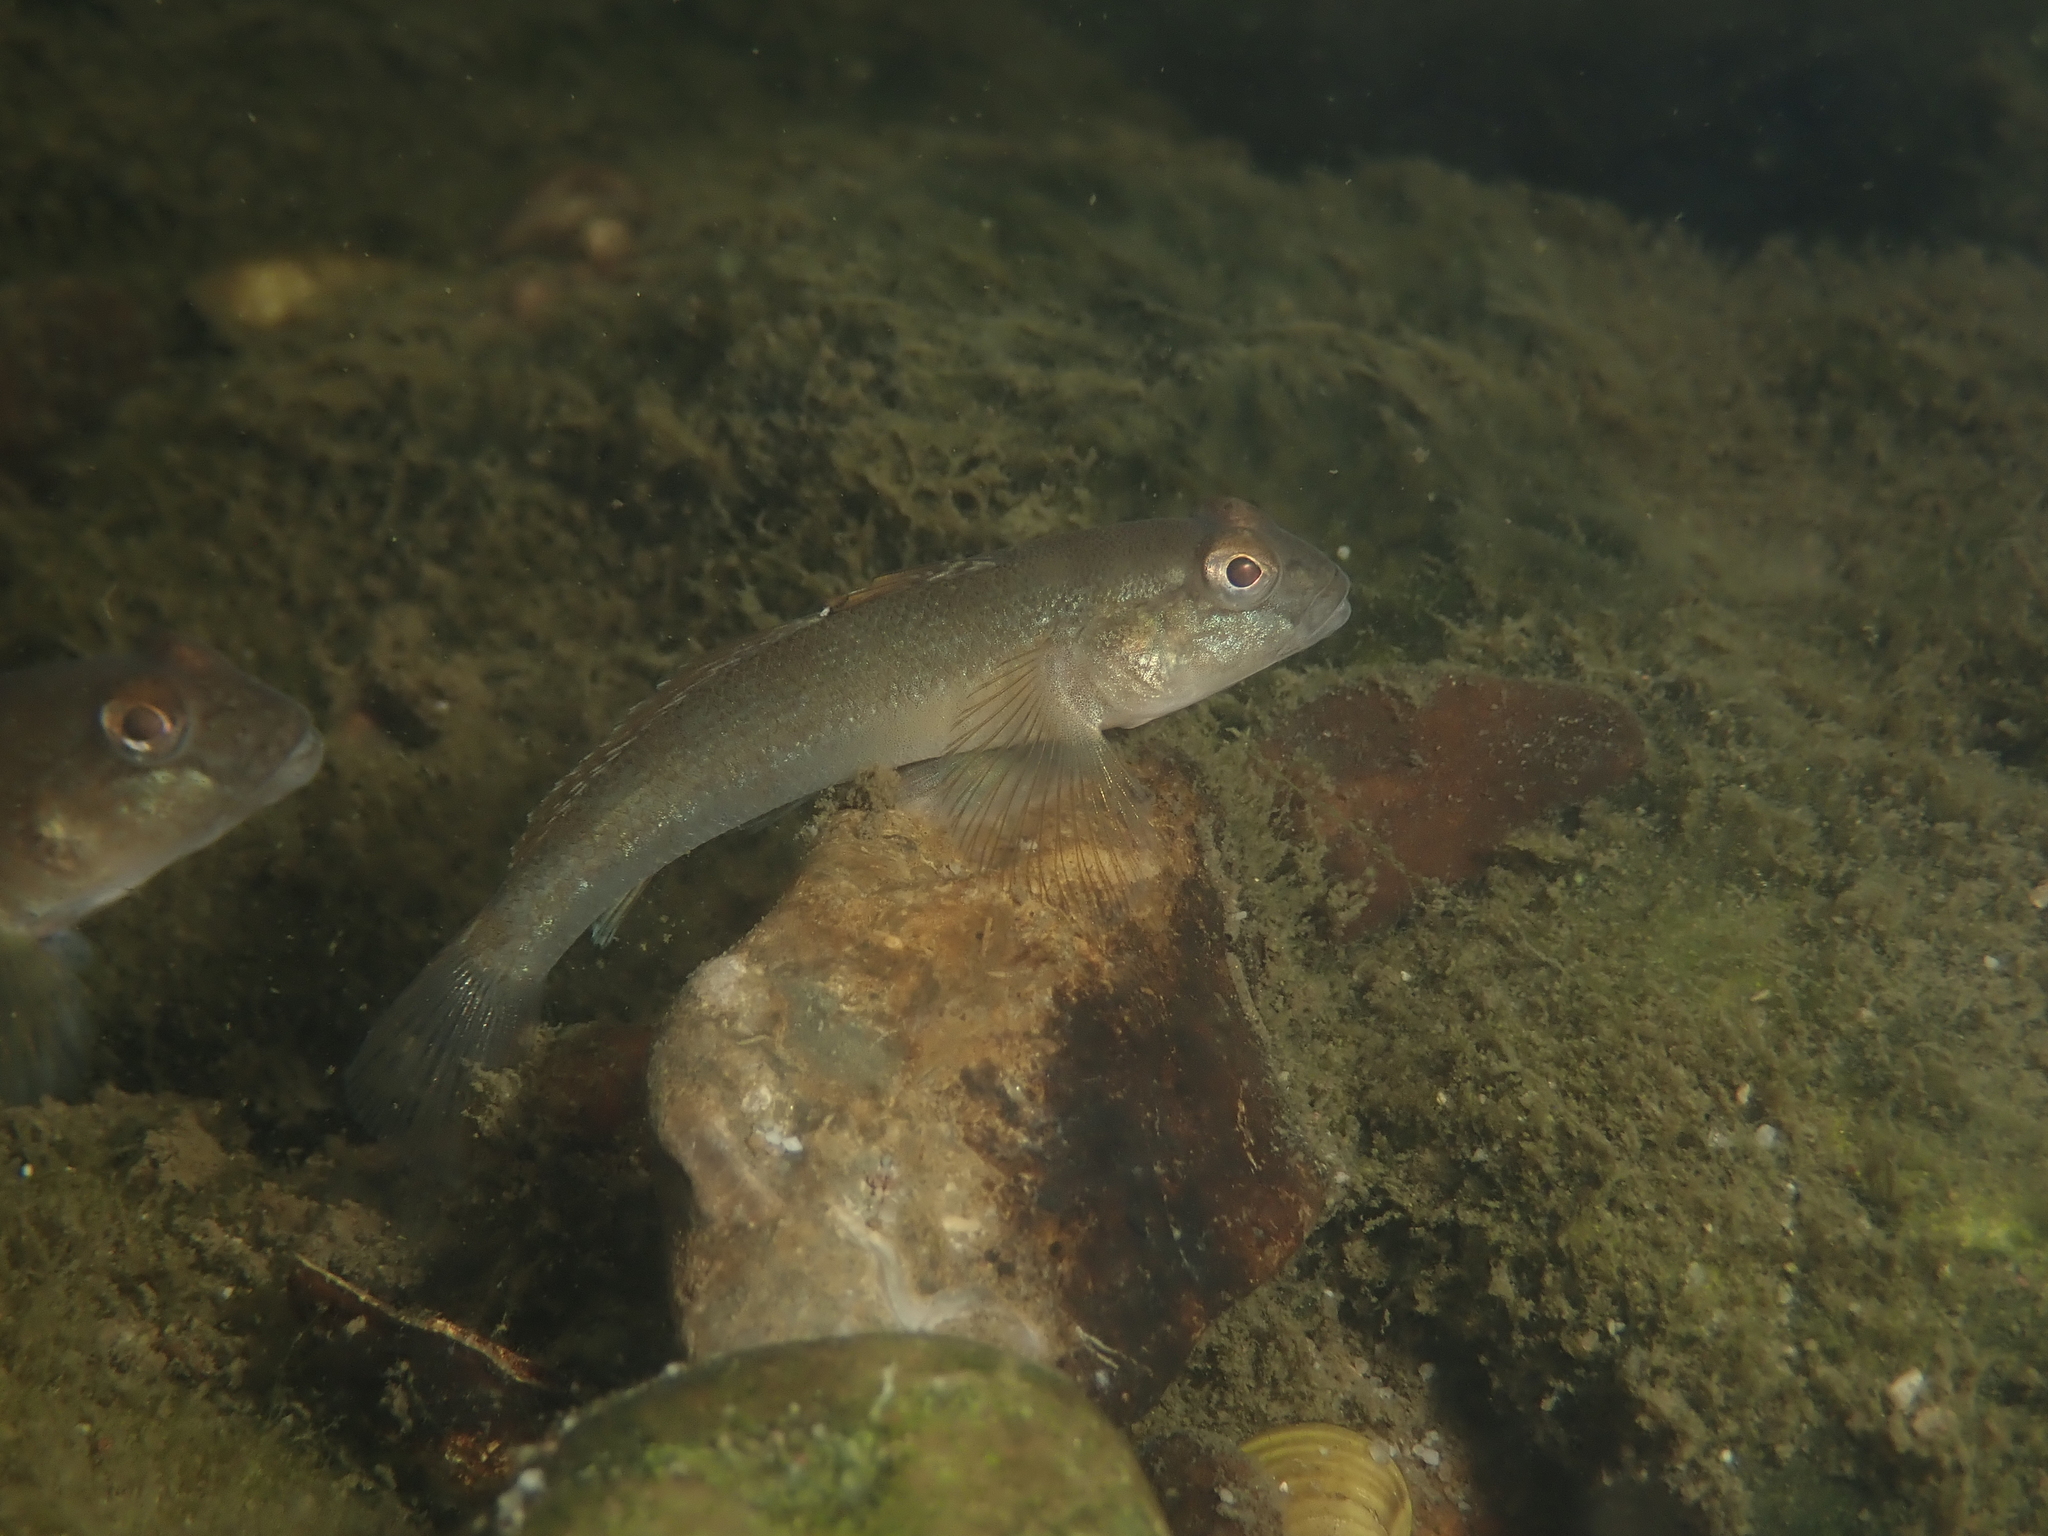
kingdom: Animalia
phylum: Chordata
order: Perciformes
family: Gobiidae
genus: Neogobius
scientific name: Neogobius melanostomus
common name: Round goby
